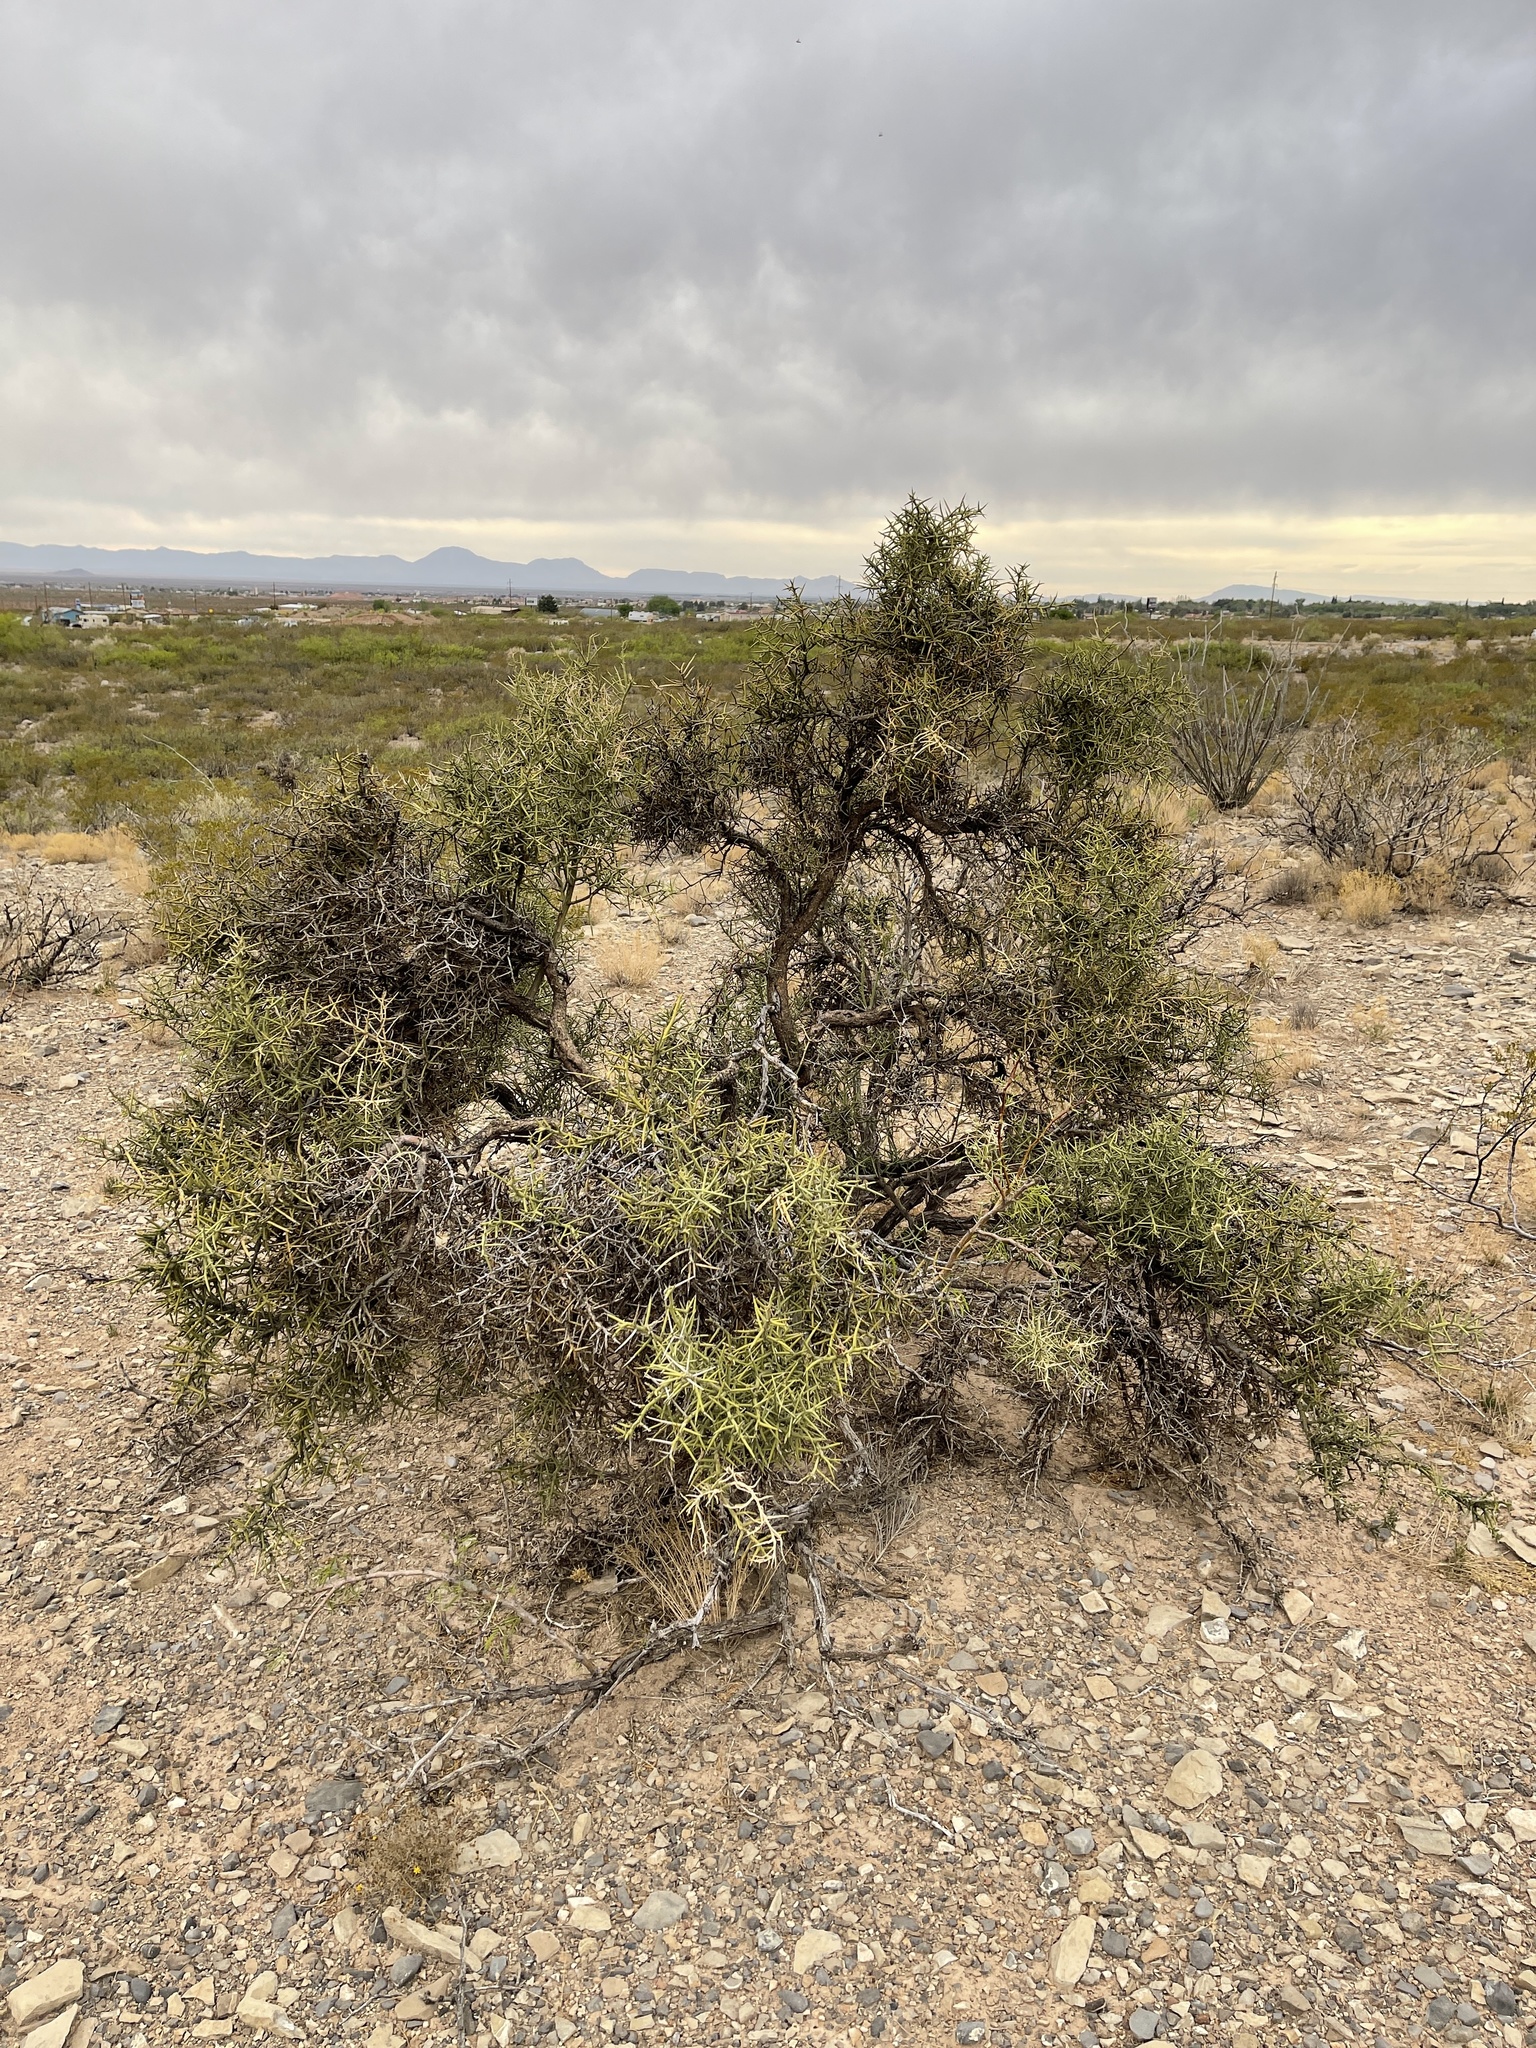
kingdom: Plantae
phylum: Tracheophyta
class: Magnoliopsida
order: Brassicales
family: Koeberliniaceae
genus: Koeberlinia
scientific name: Koeberlinia spinosa
